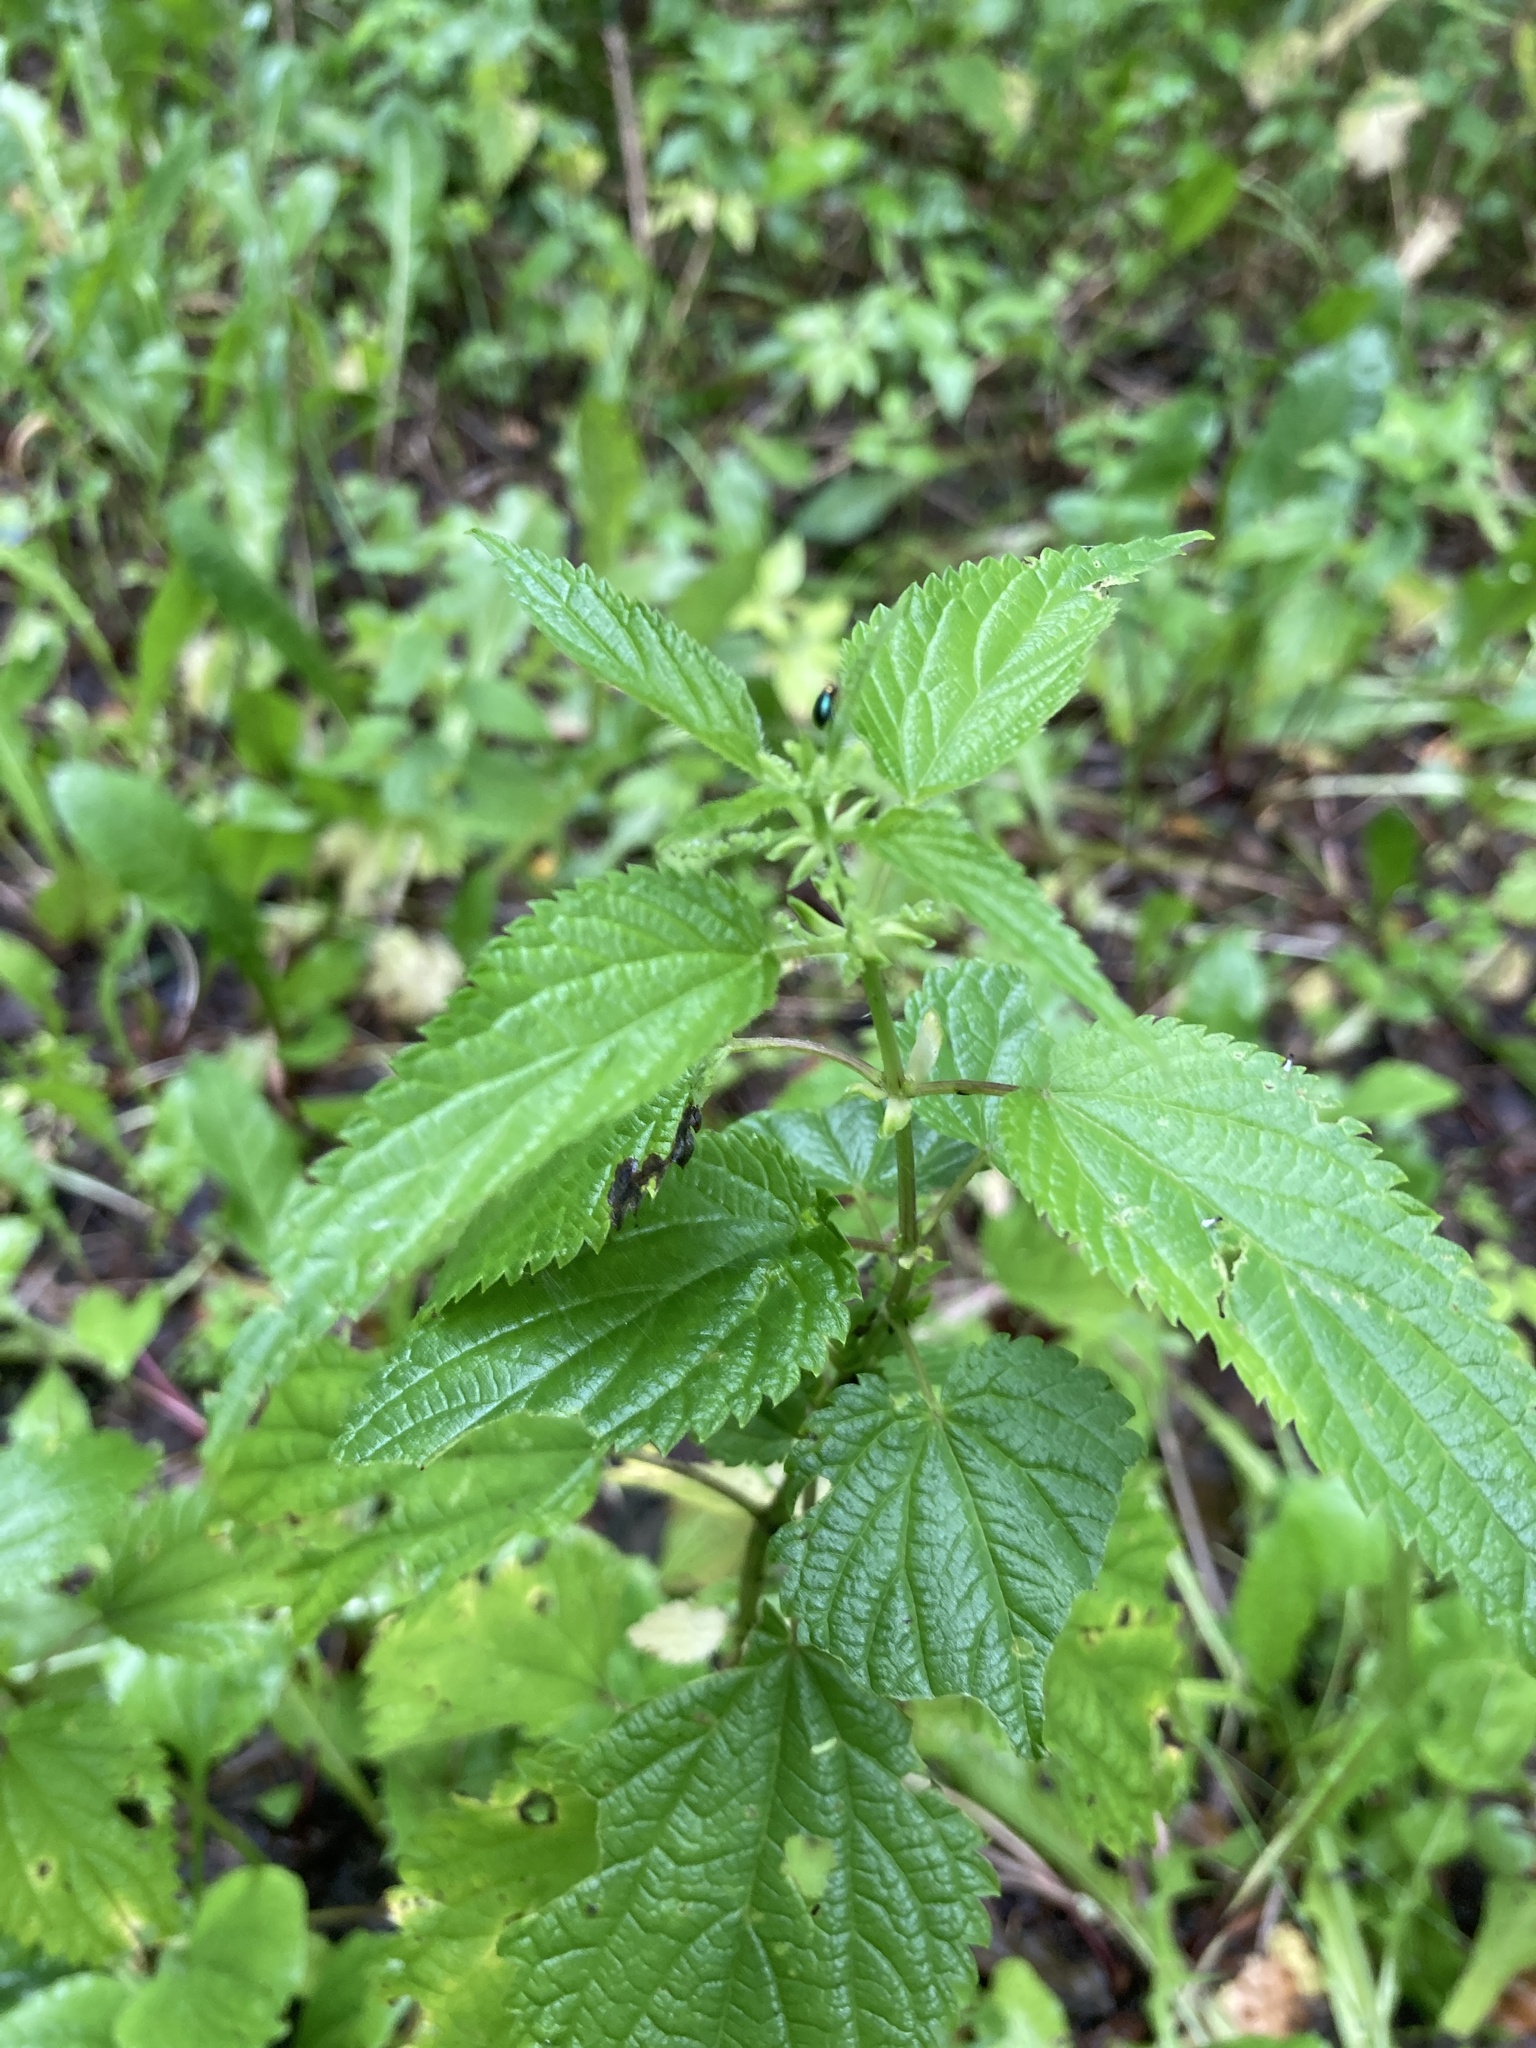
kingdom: Plantae
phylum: Tracheophyta
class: Magnoliopsida
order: Rosales
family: Urticaceae
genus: Urtica
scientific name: Urtica dioica
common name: Common nettle
